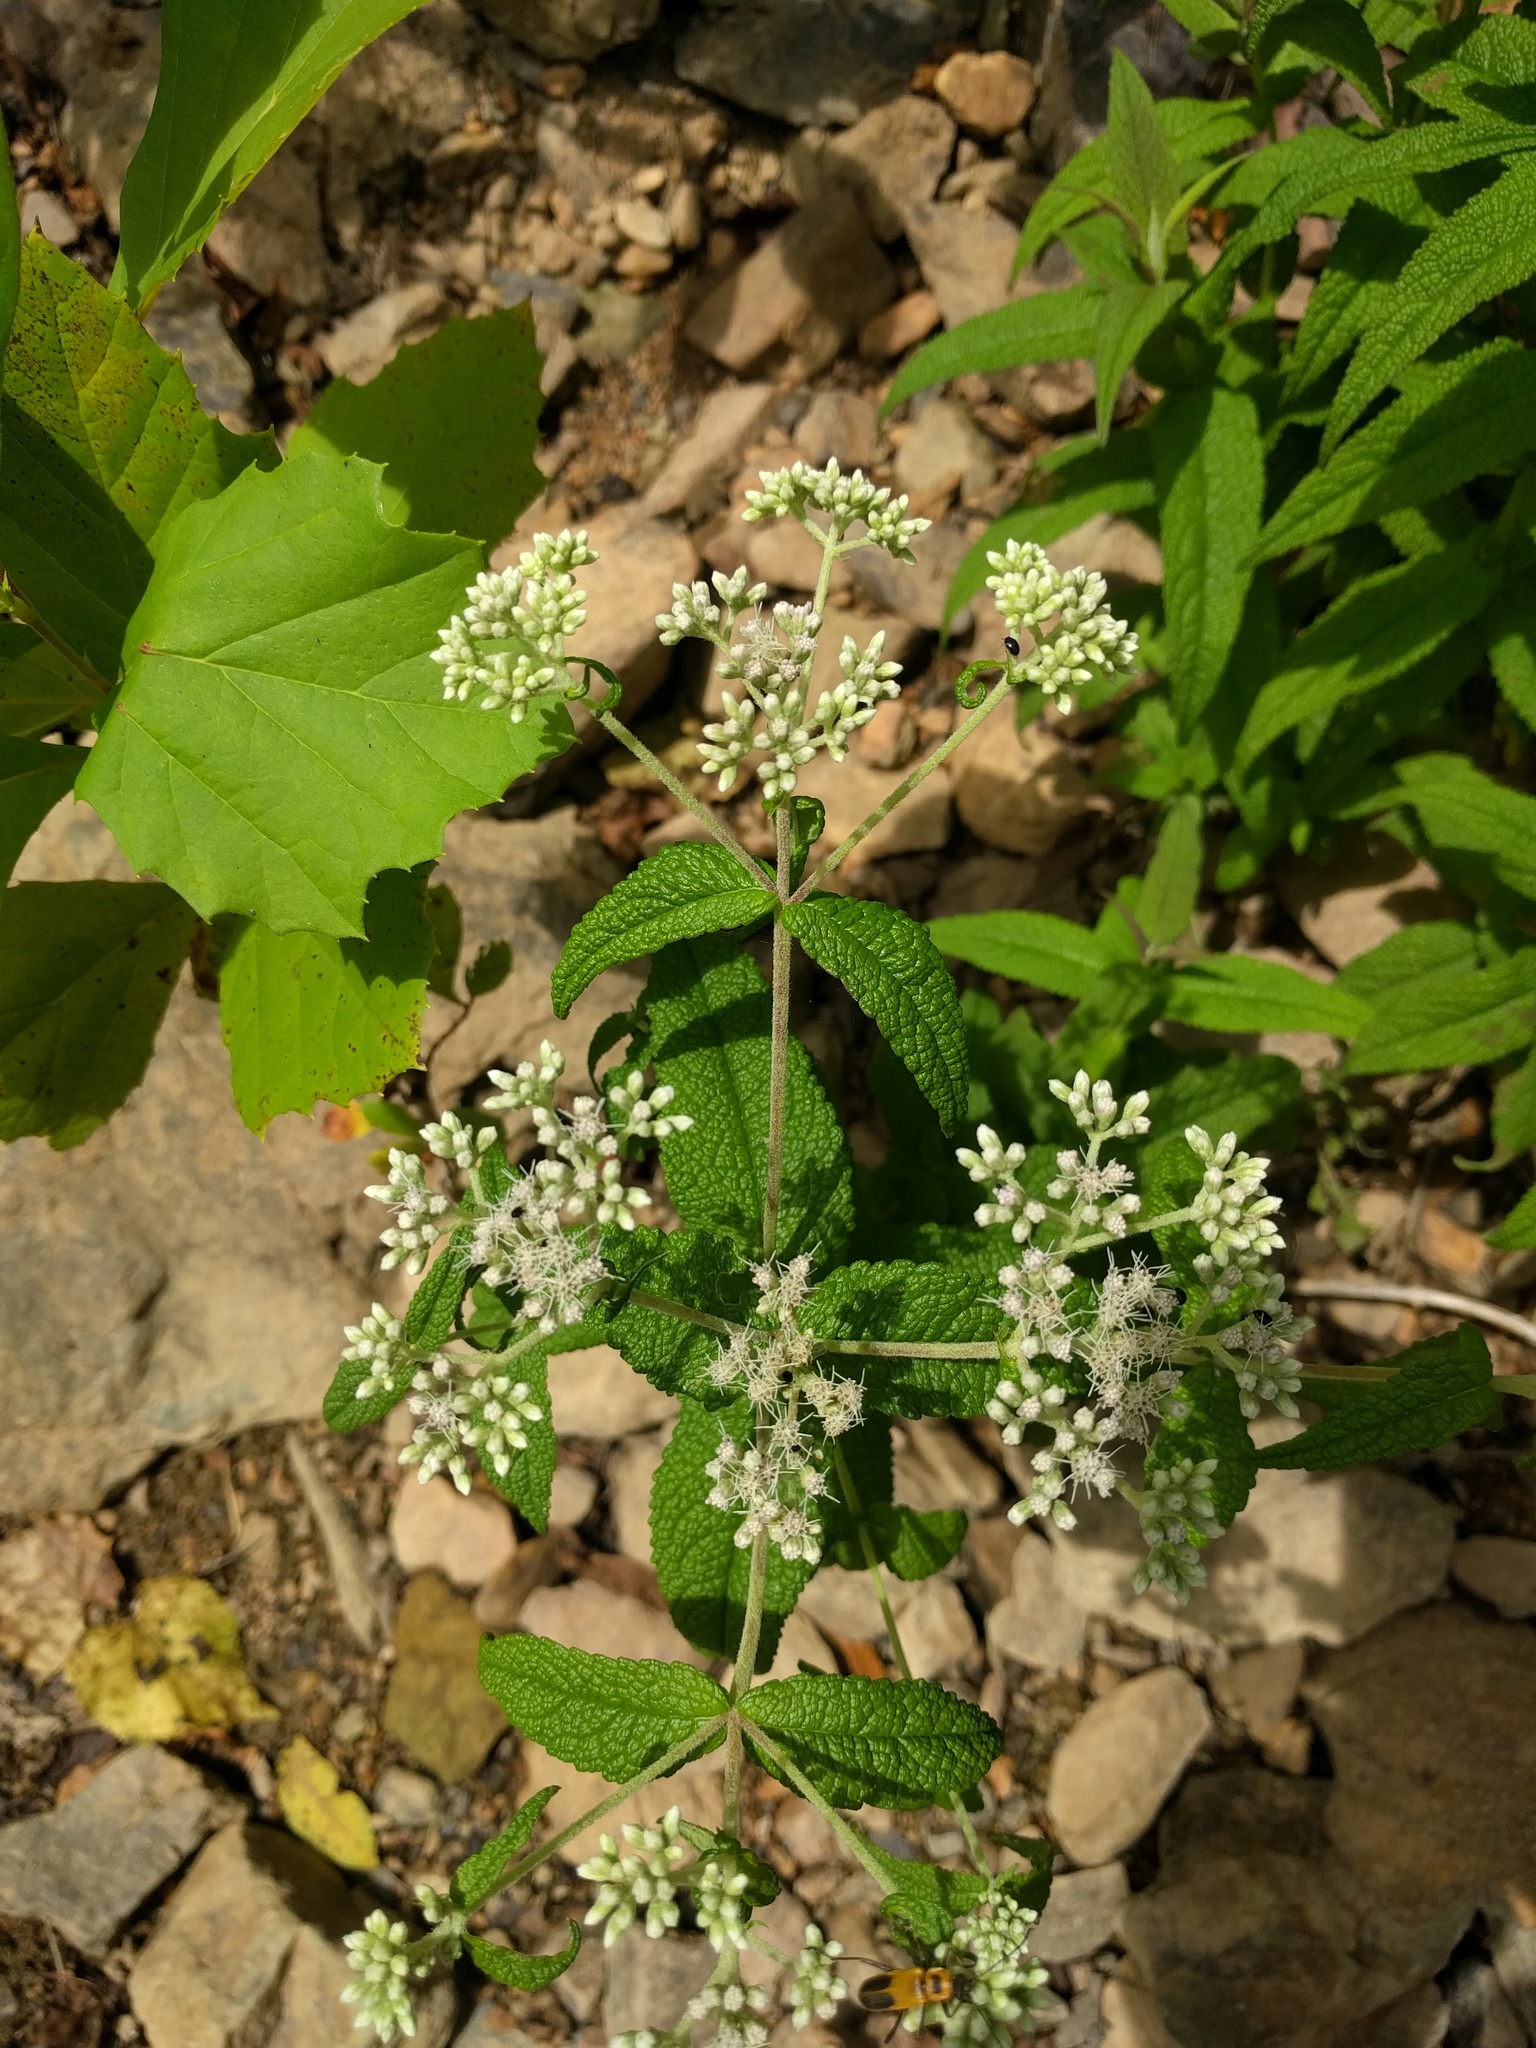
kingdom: Plantae
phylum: Tracheophyta
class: Magnoliopsida
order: Asterales
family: Asteraceae
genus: Eupatorium
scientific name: Eupatorium perfoliatum
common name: Boneset
